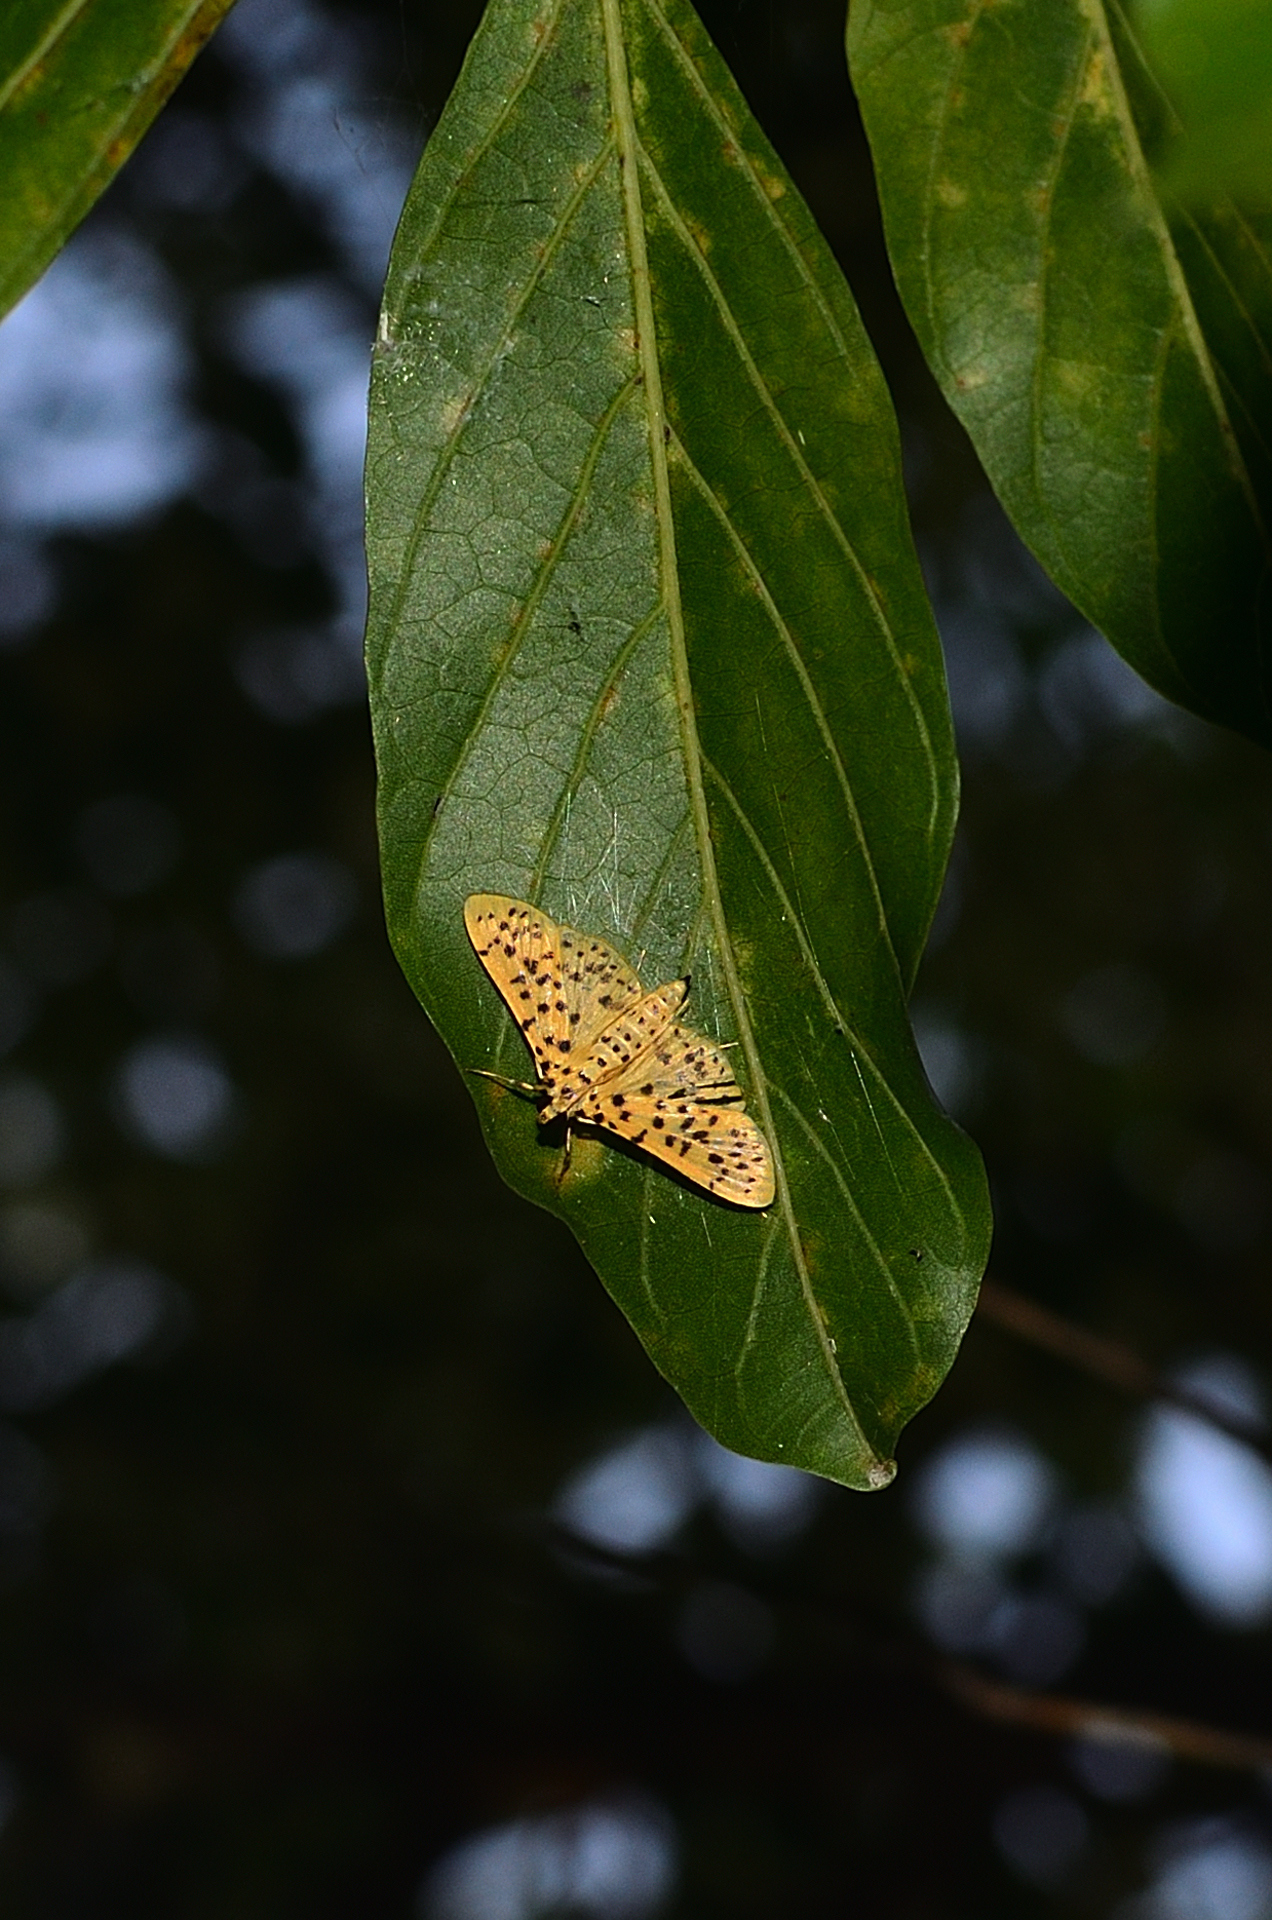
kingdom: Animalia
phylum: Arthropoda
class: Insecta
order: Lepidoptera
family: Crambidae
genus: Conogethes
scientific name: Conogethes punctiferalis
